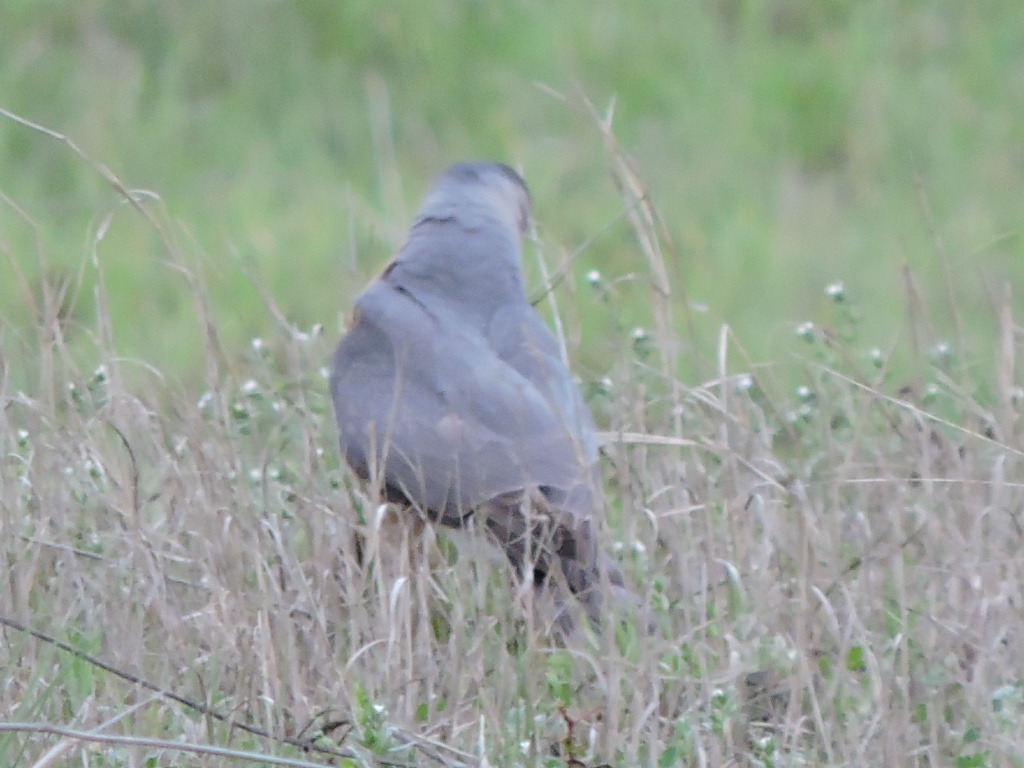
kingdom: Animalia
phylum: Chordata
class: Aves
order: Accipitriformes
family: Accipitridae
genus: Accipiter
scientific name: Accipiter cooperii
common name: Cooper's hawk
